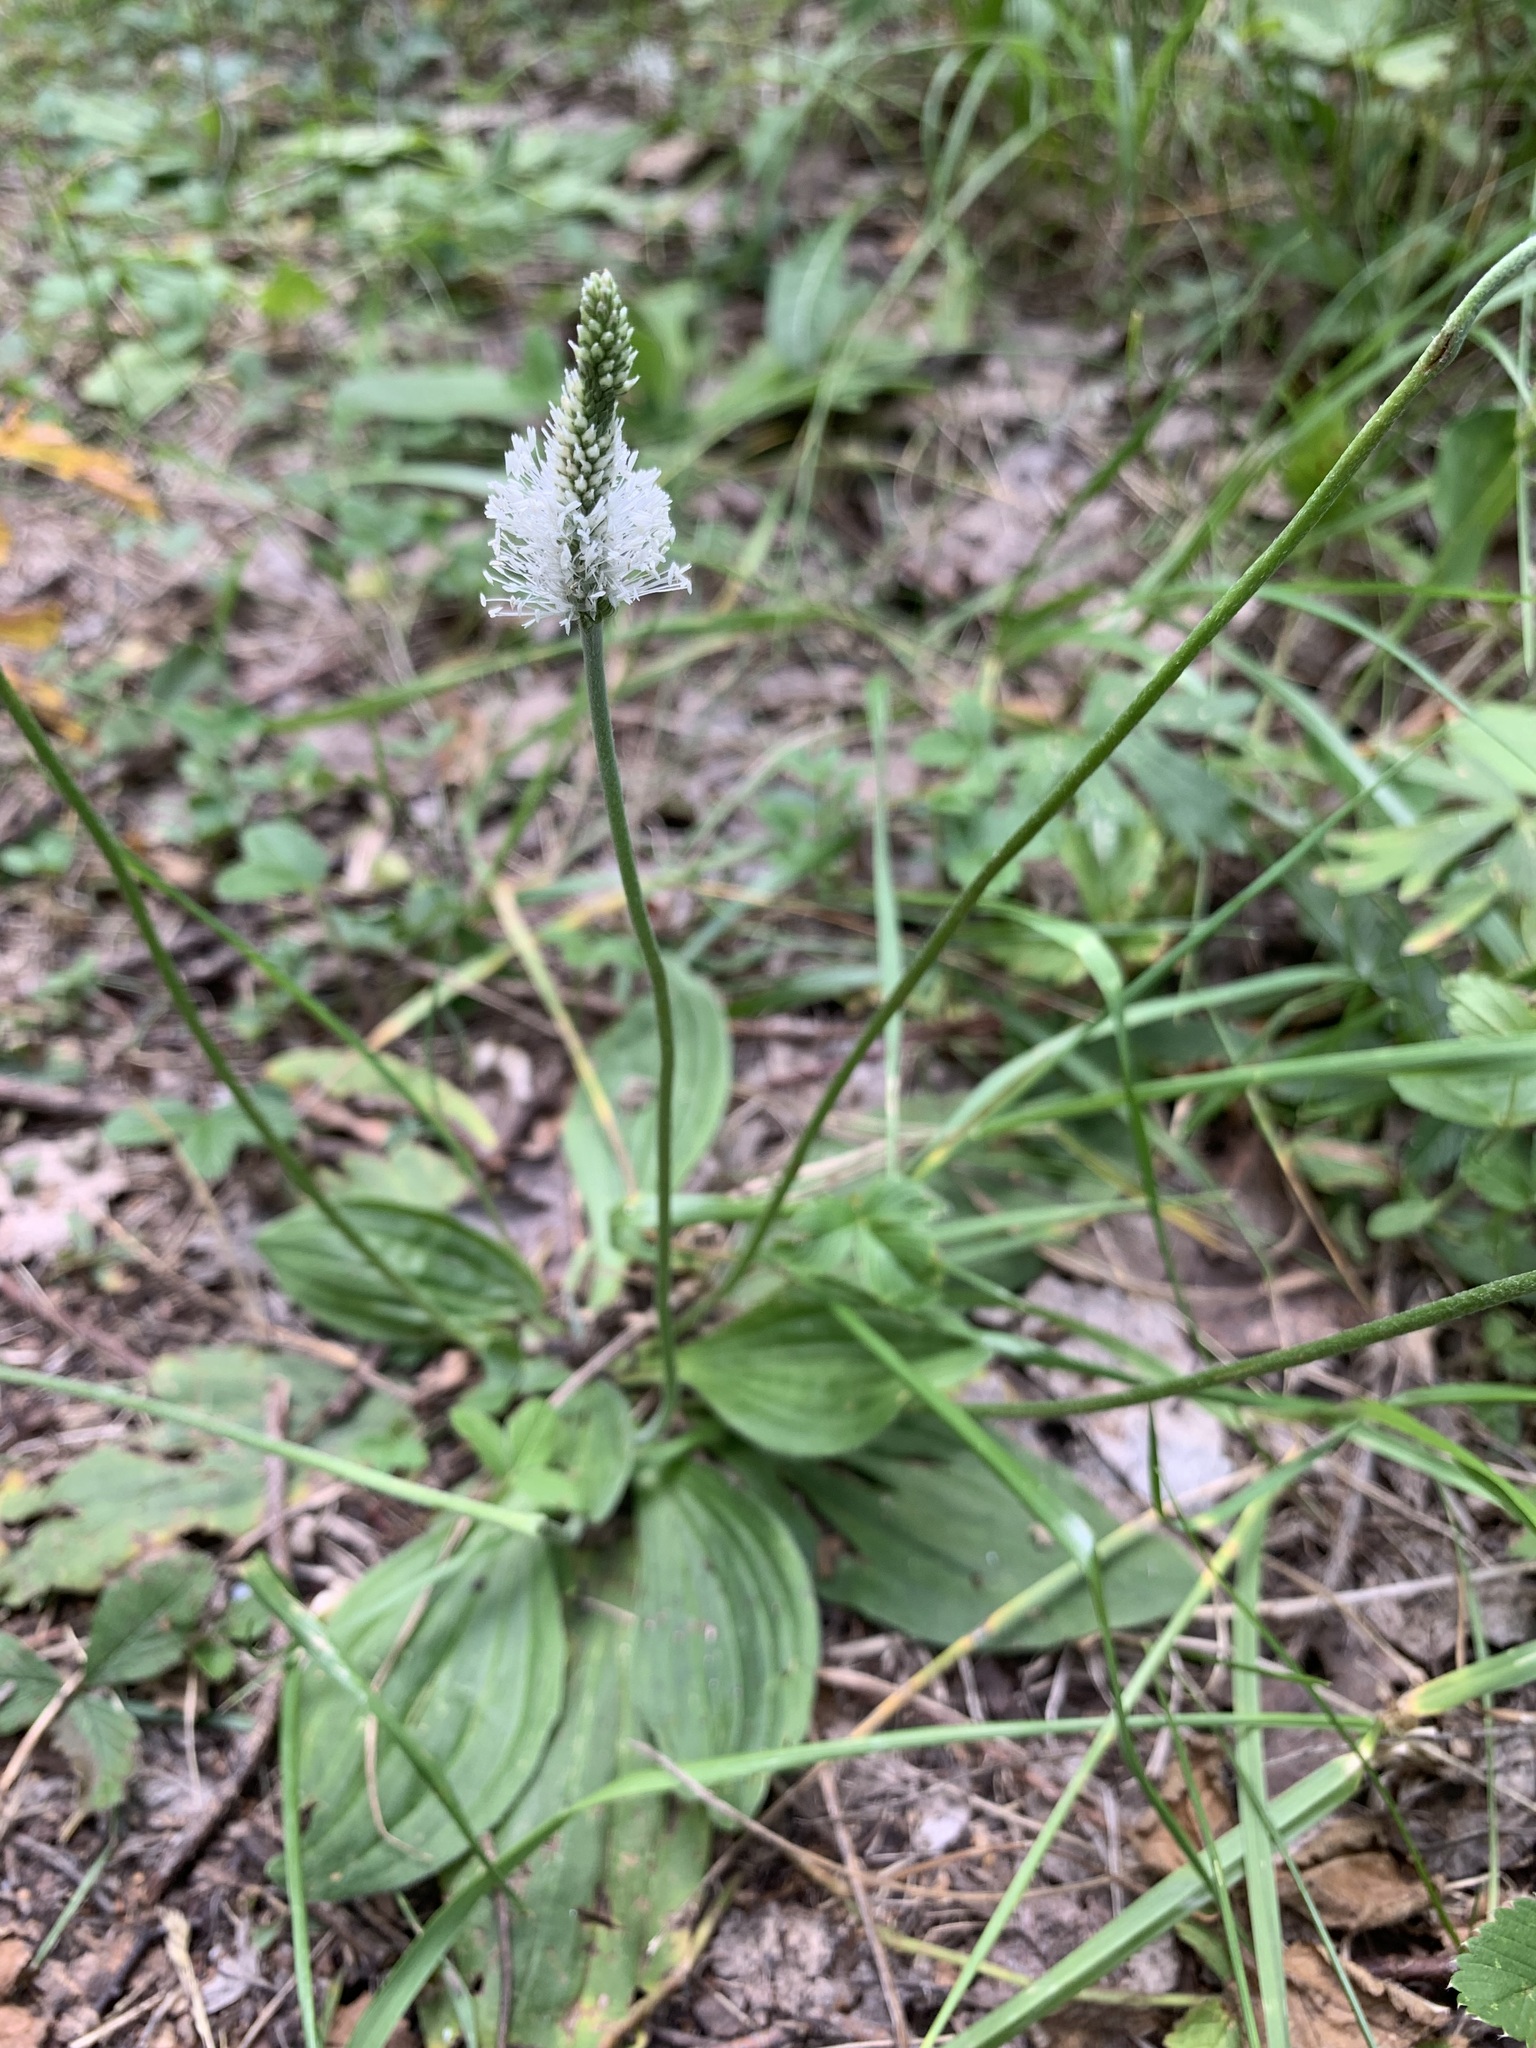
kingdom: Plantae
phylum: Tracheophyta
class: Magnoliopsida
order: Lamiales
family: Plantaginaceae
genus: Plantago
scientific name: Plantago media
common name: Hoary plantain
